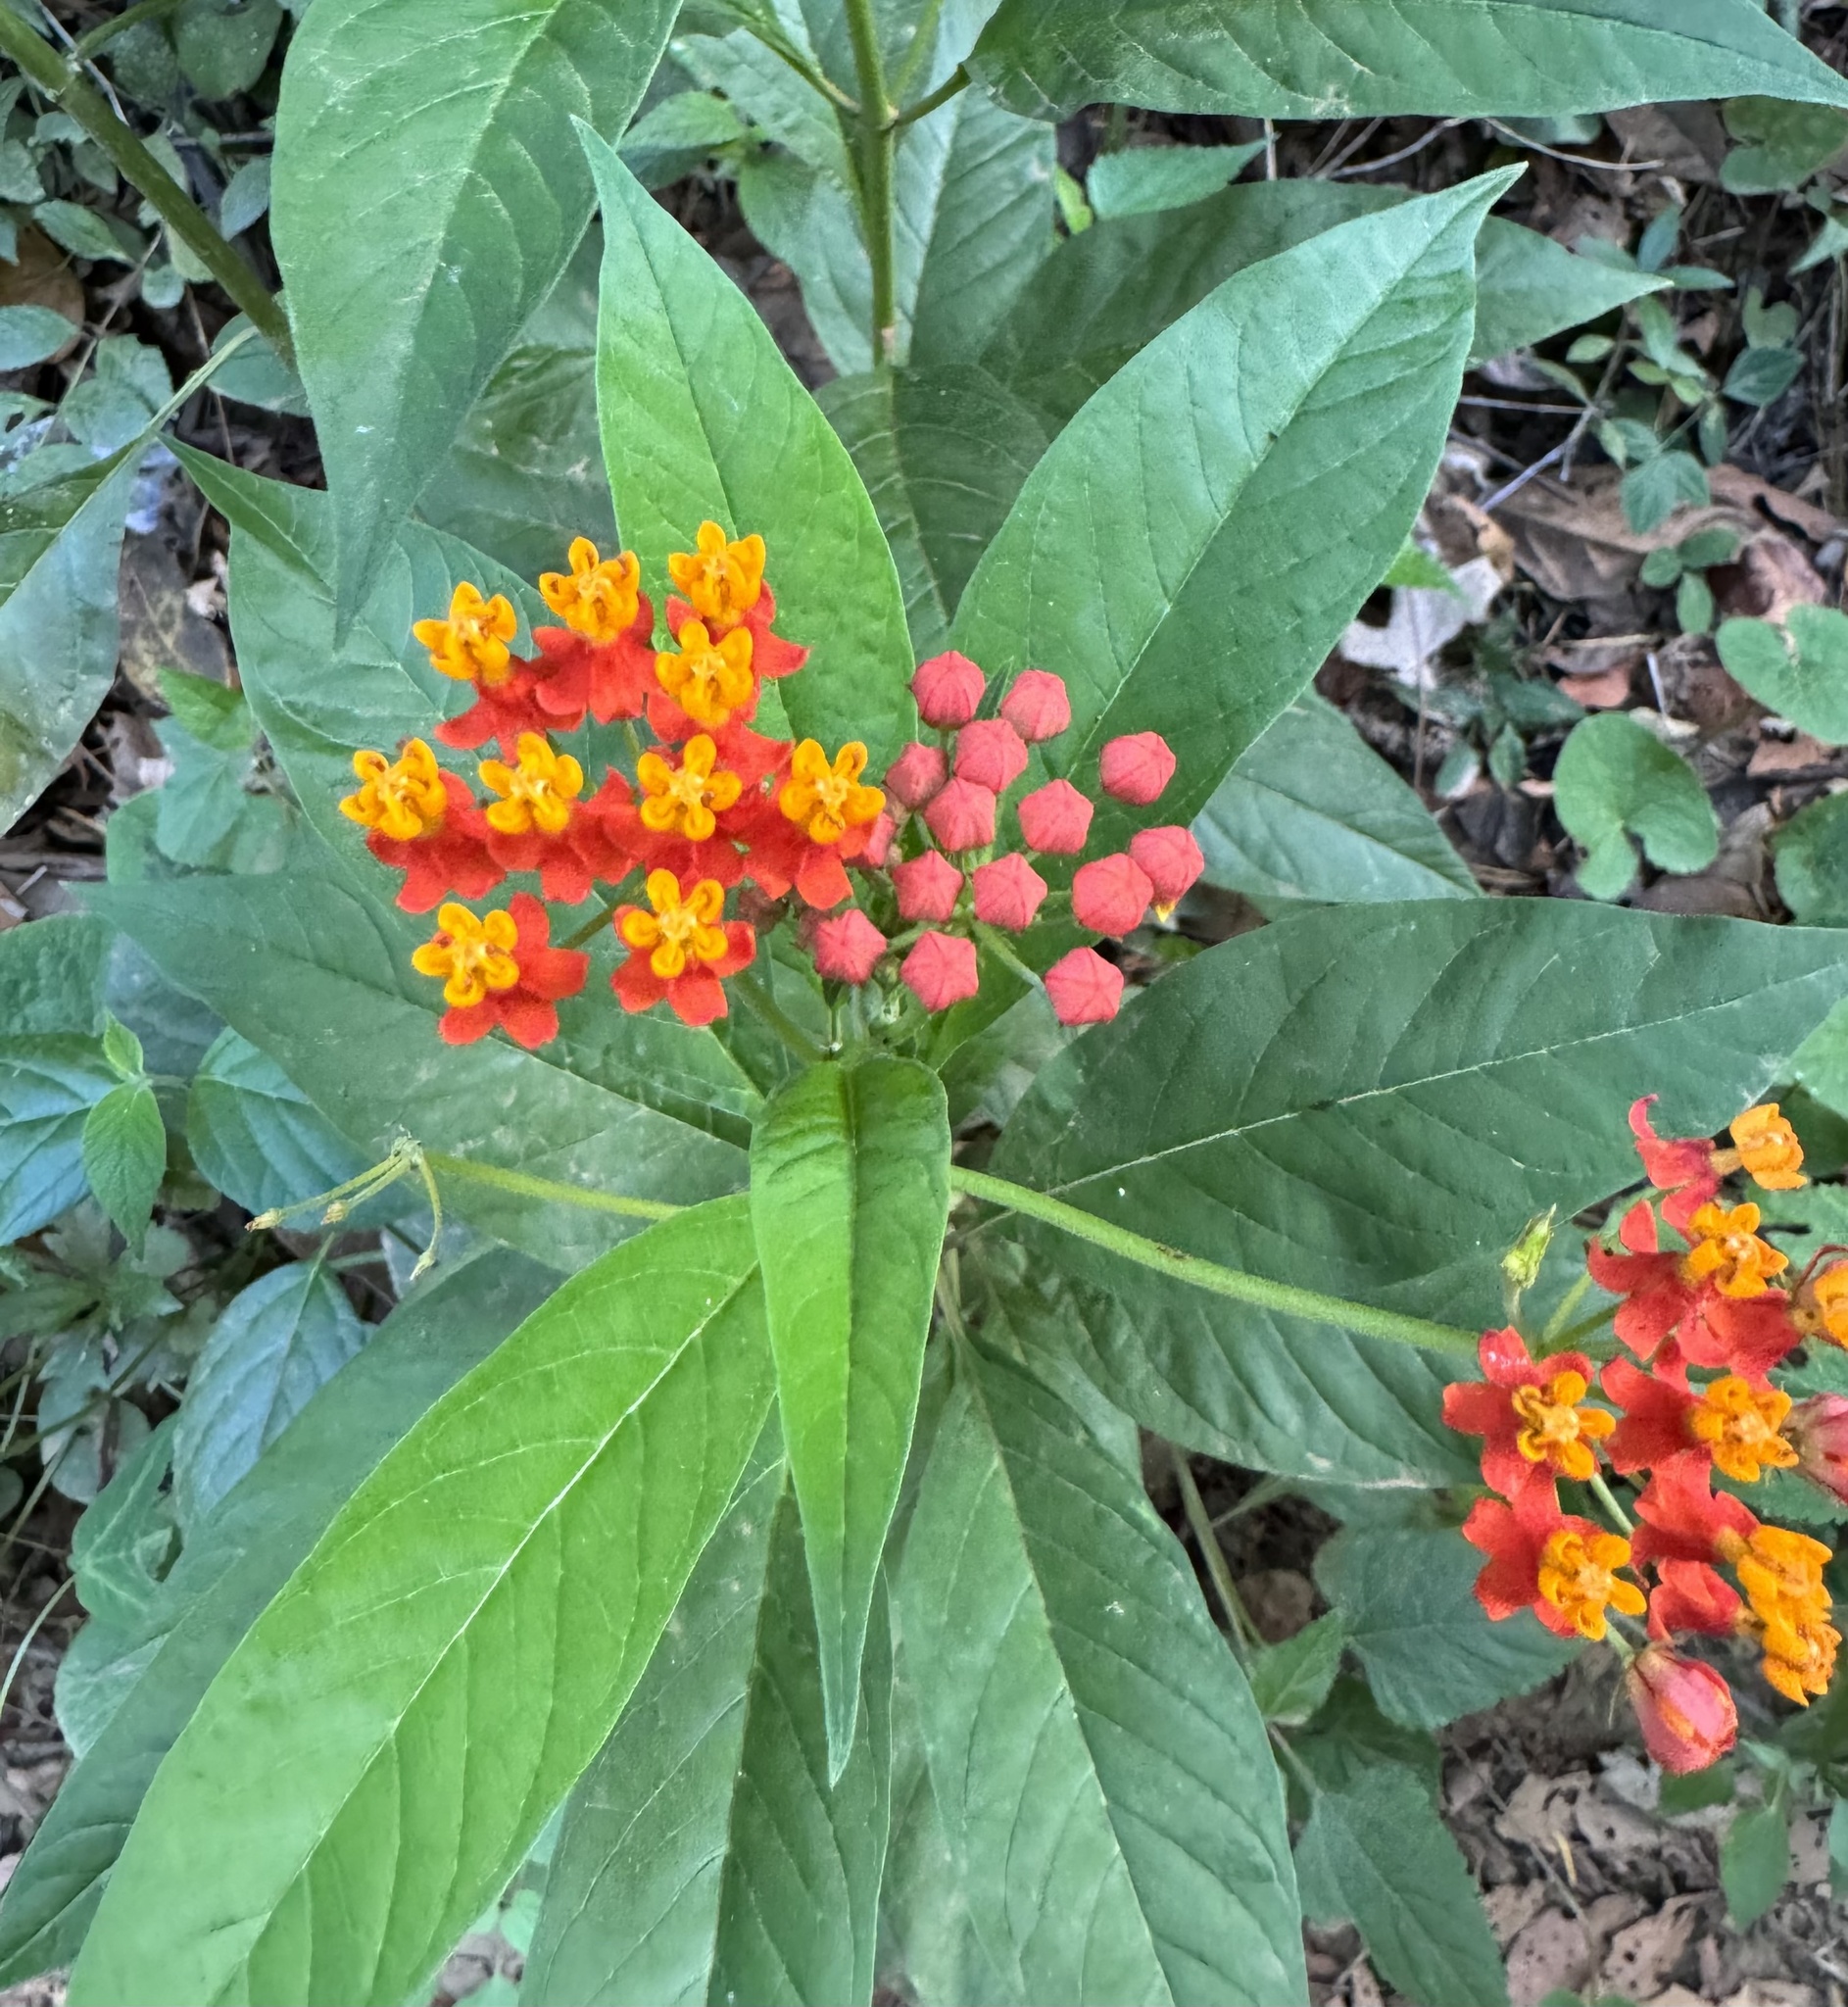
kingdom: Plantae
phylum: Tracheophyta
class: Magnoliopsida
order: Gentianales
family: Apocynaceae
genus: Asclepias
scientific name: Asclepias curassavica
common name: Bloodflower
